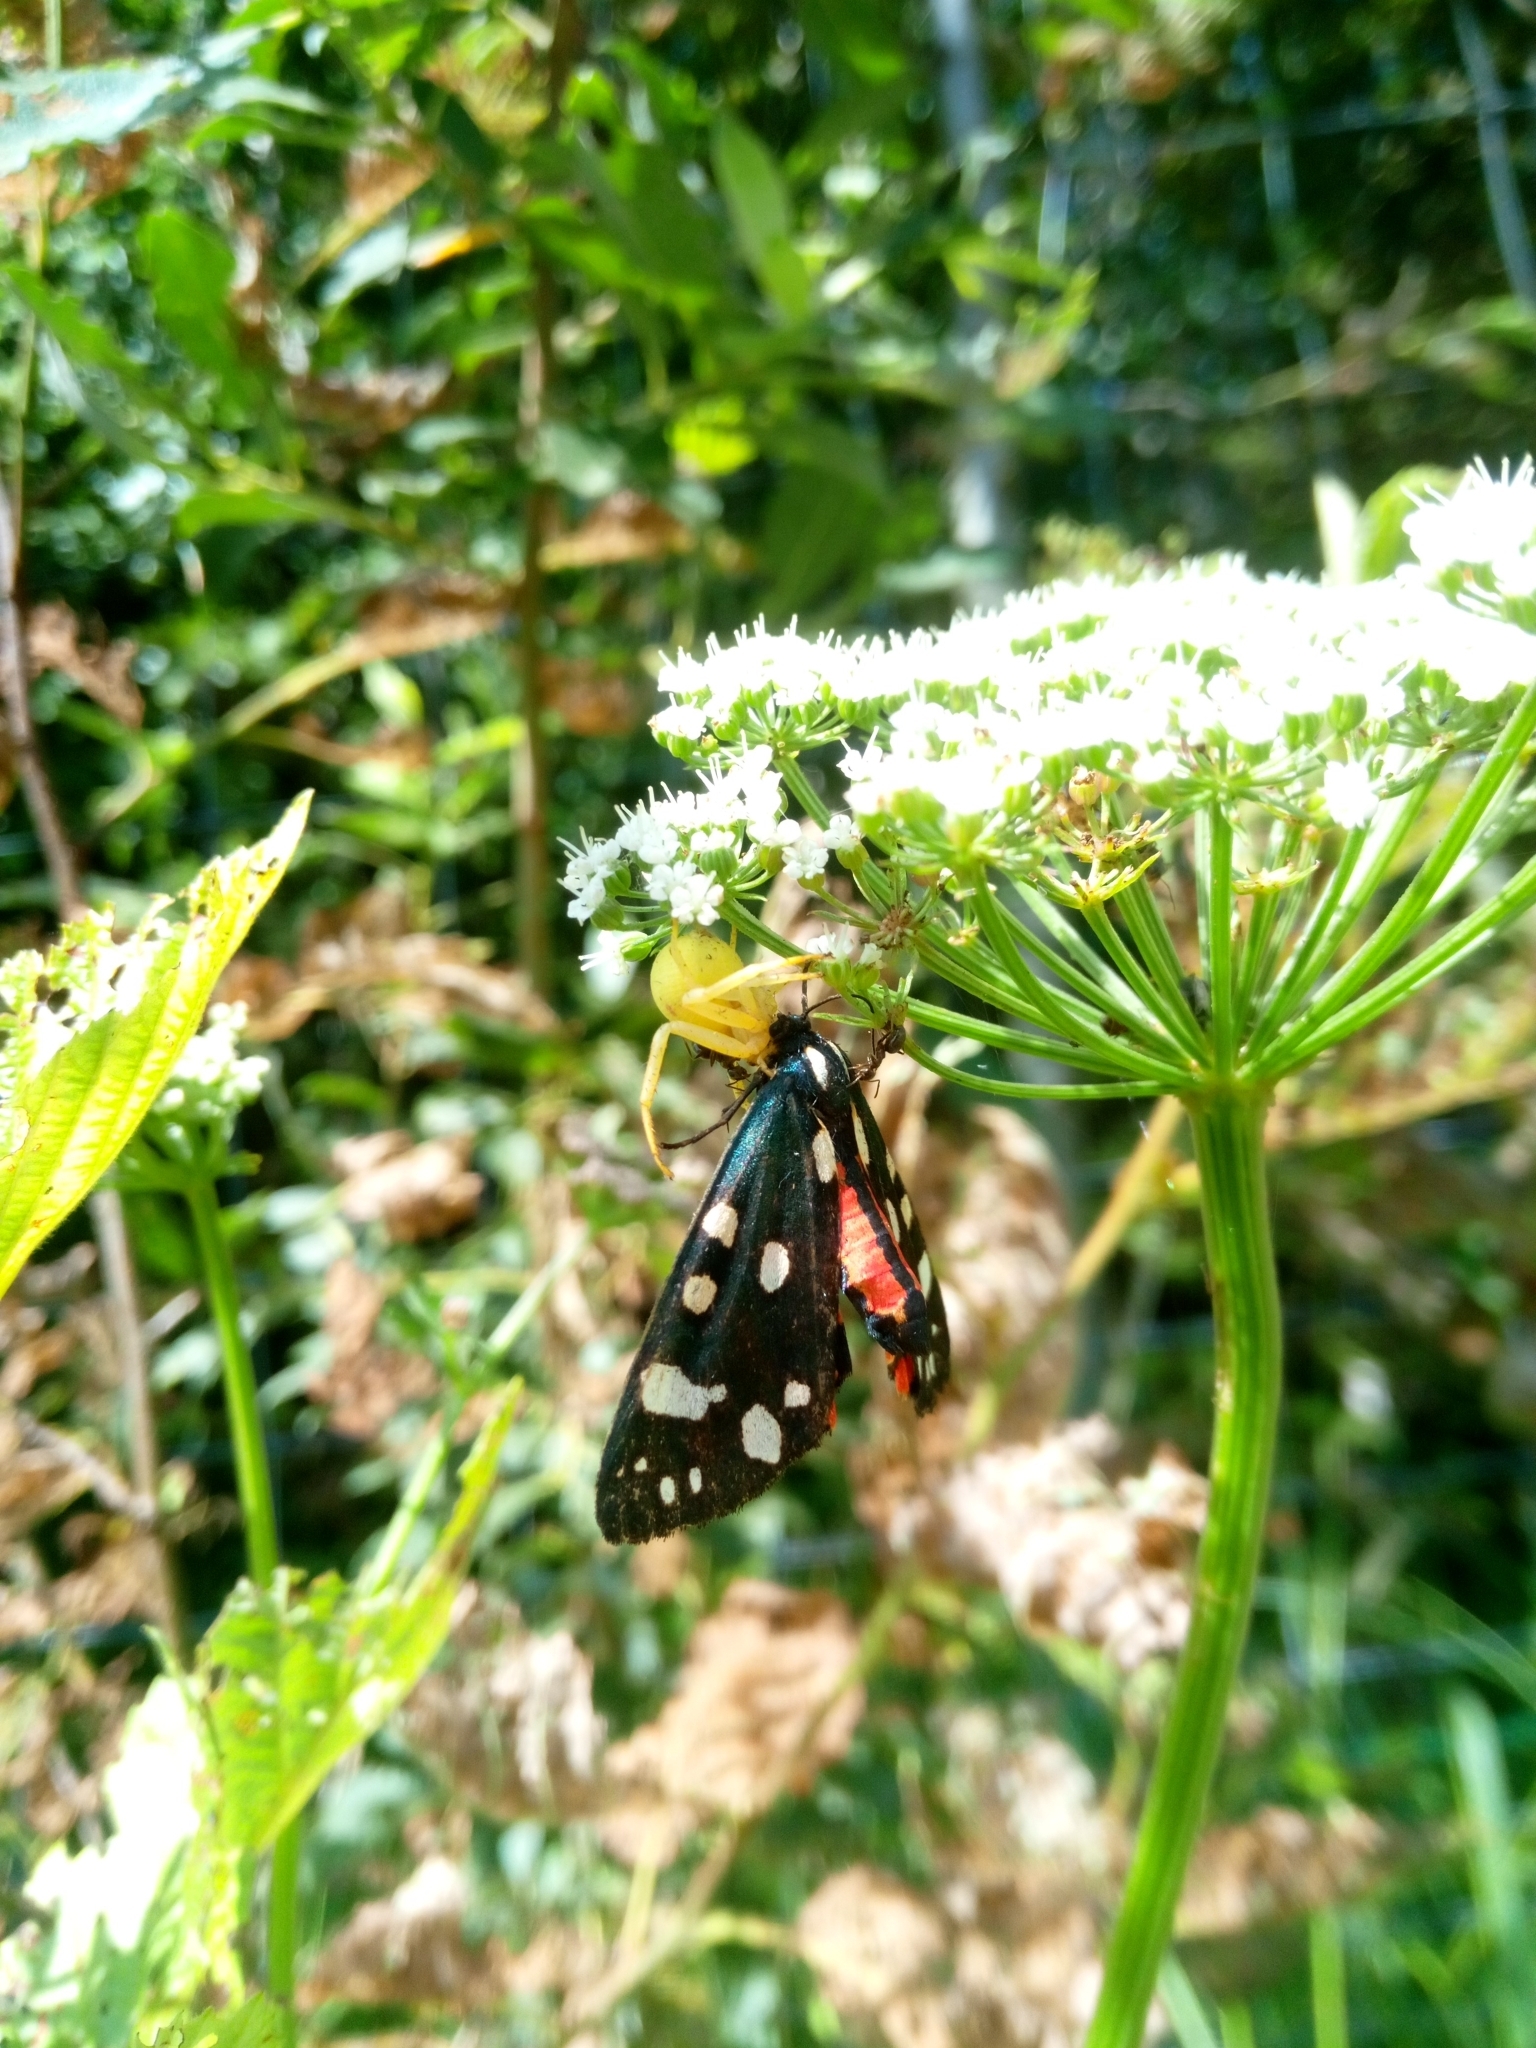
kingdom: Animalia
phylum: Arthropoda
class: Insecta
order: Lepidoptera
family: Erebidae
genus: Callimorpha
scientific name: Callimorpha dominula
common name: Scarlet tiger
